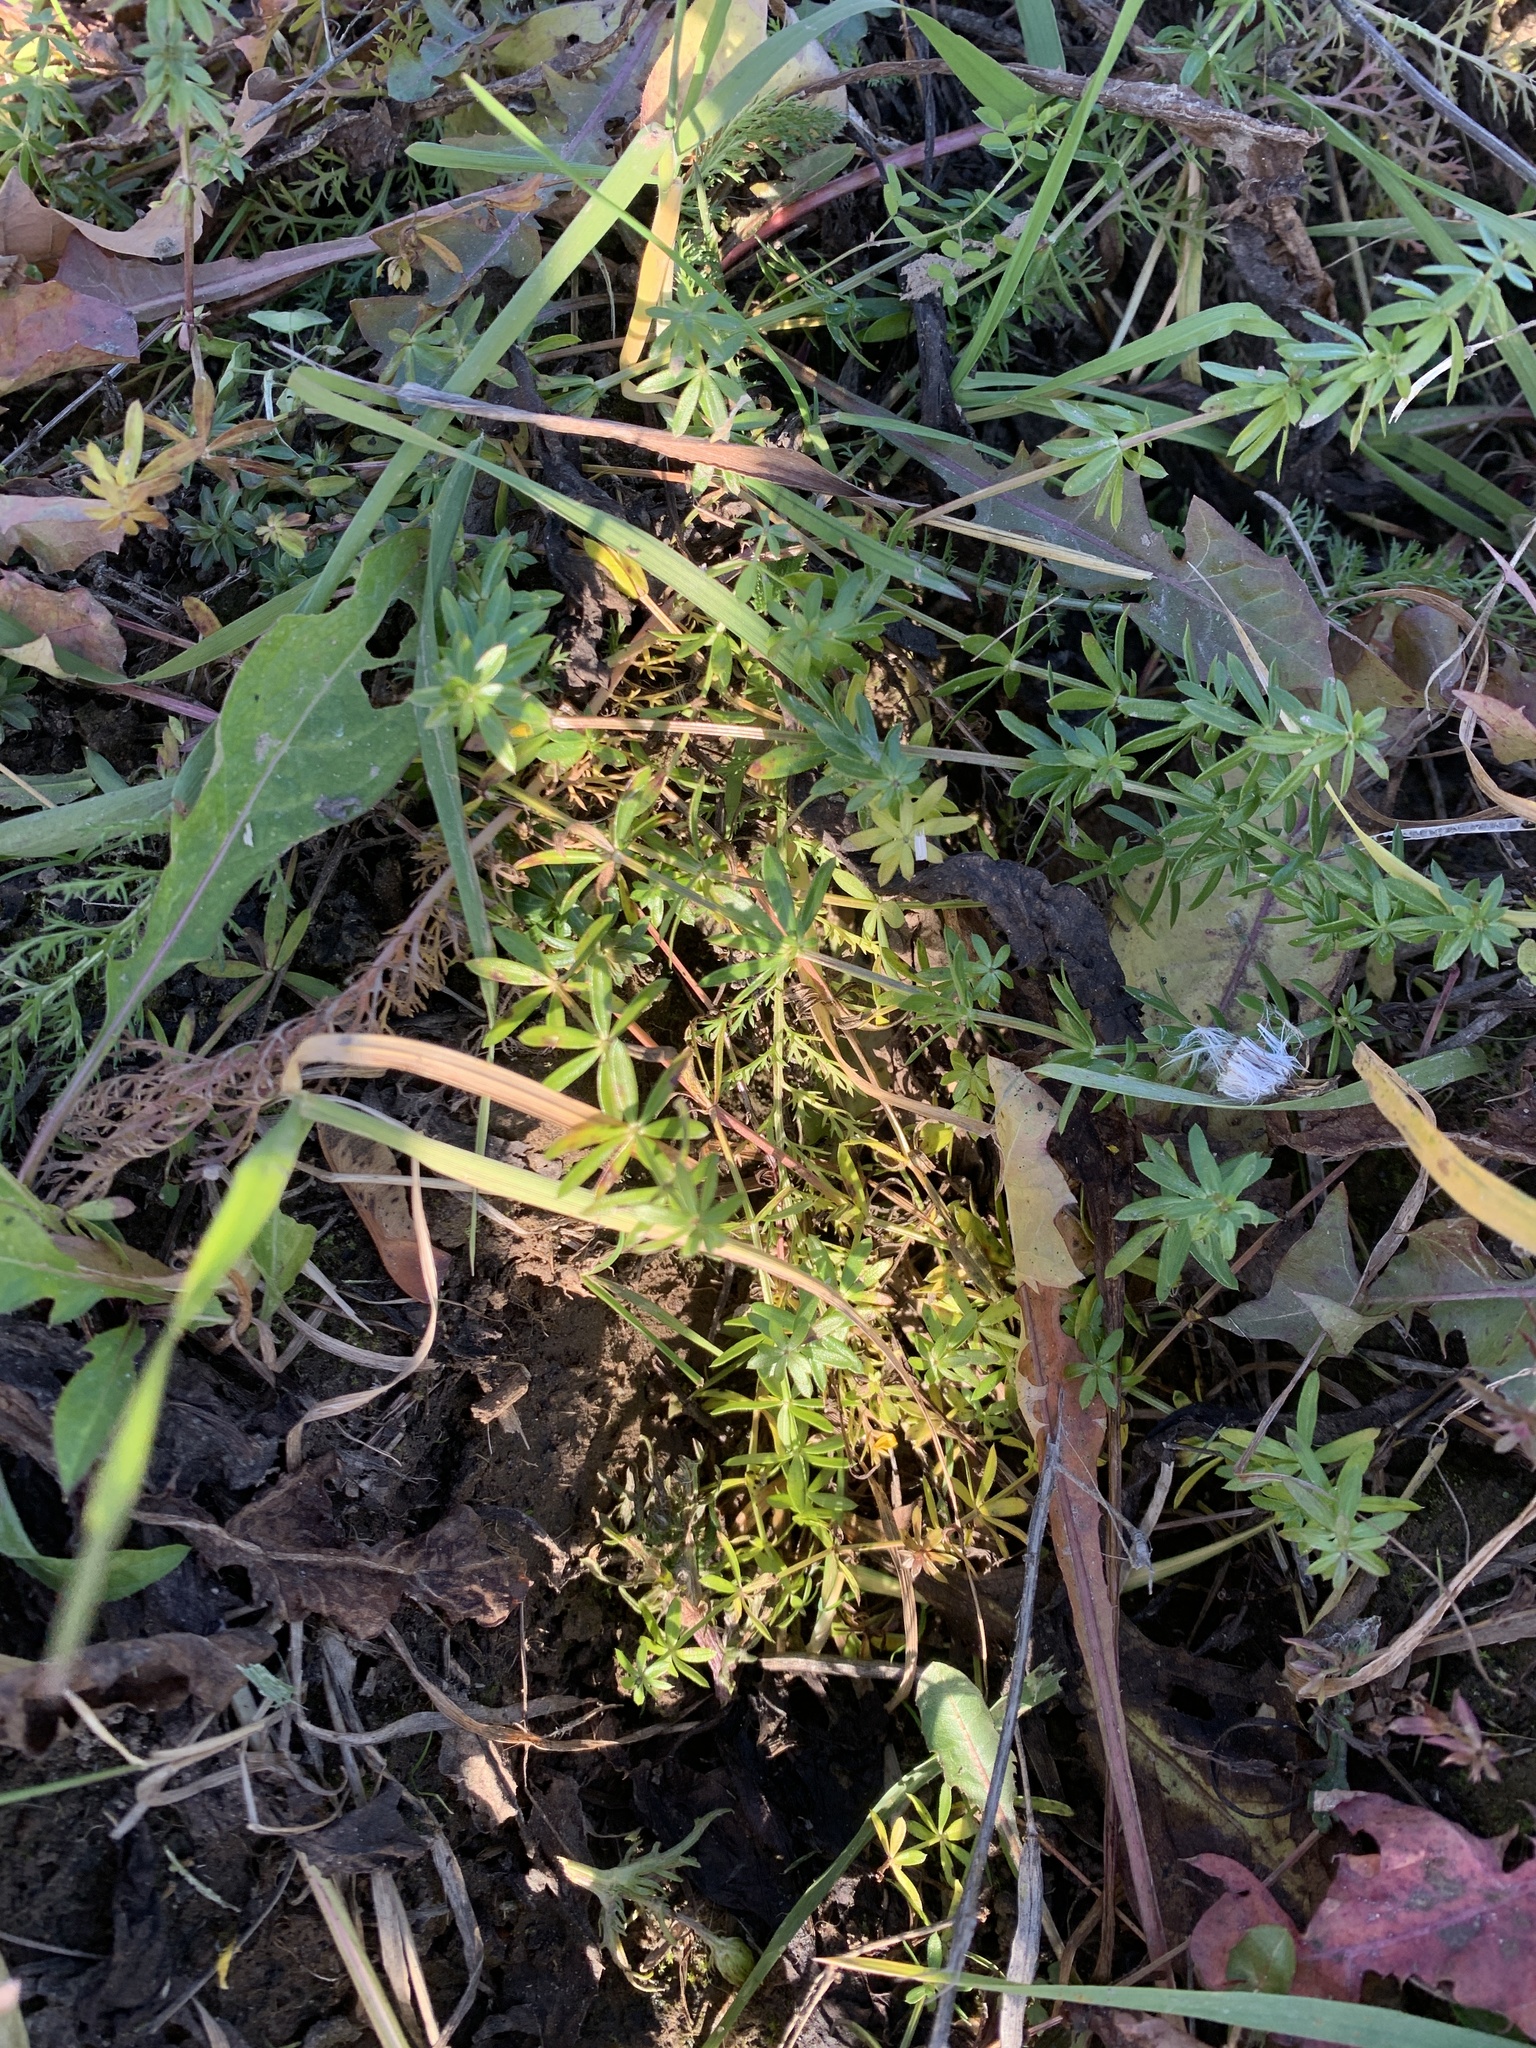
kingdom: Plantae
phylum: Tracheophyta
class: Magnoliopsida
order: Gentianales
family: Rubiaceae
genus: Galium
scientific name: Galium mollugo
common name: Hedge bedstraw
